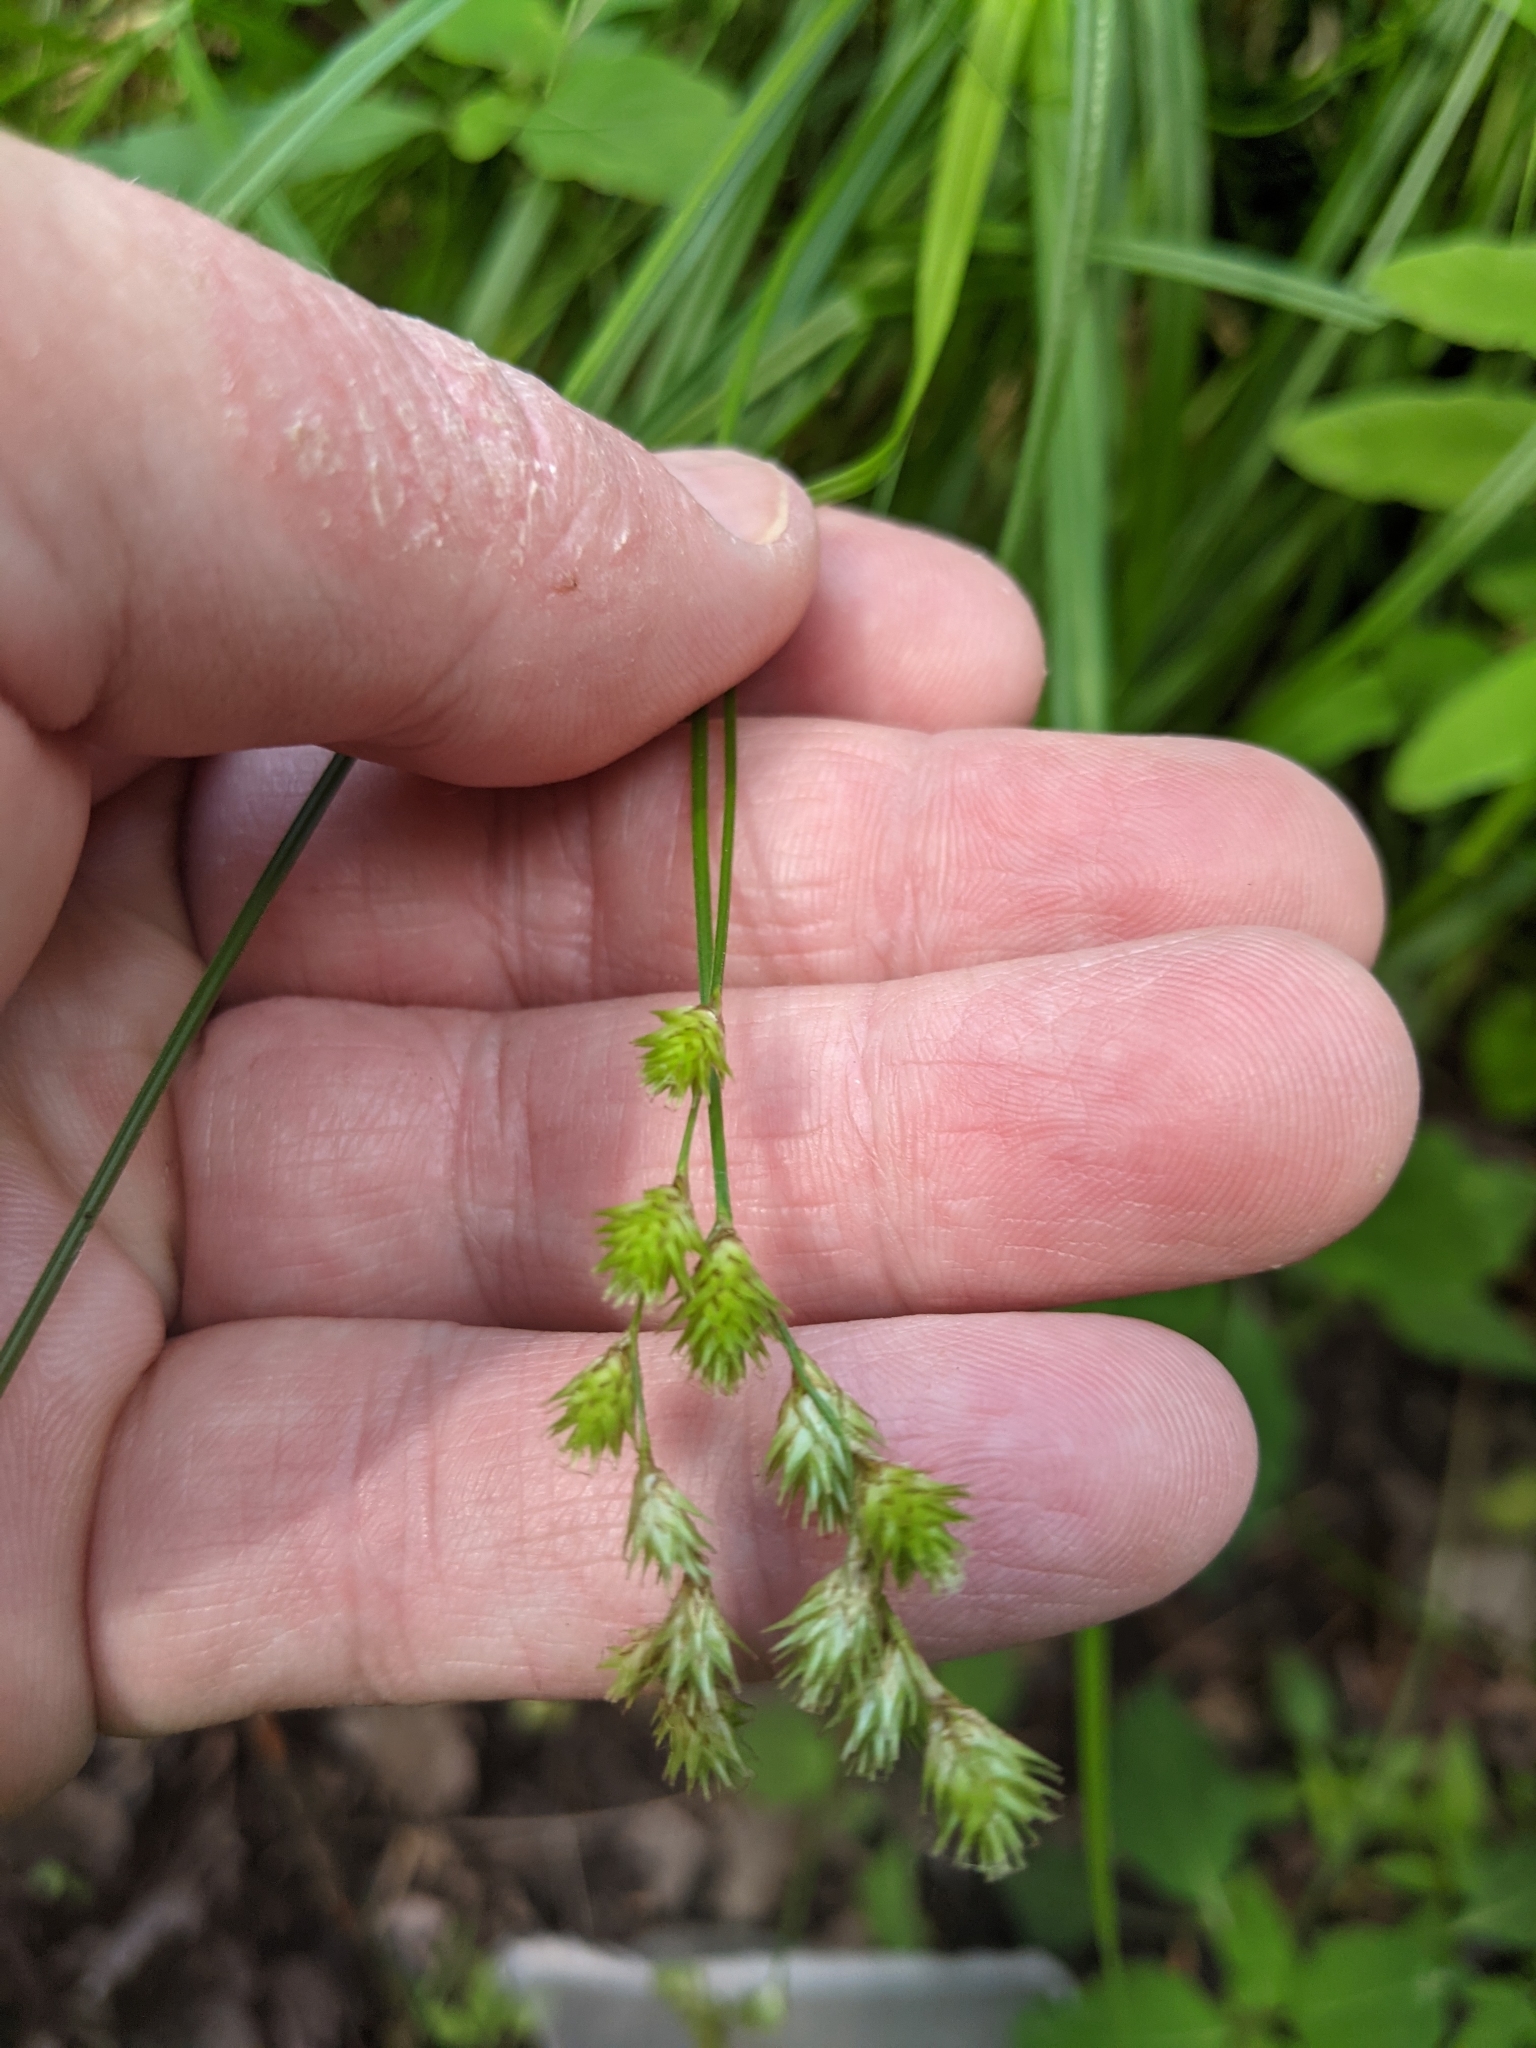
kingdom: Plantae
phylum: Tracheophyta
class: Liliopsida
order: Poales
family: Cyperaceae
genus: Carex
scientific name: Carex projecta
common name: Loose-headed oval sedge
